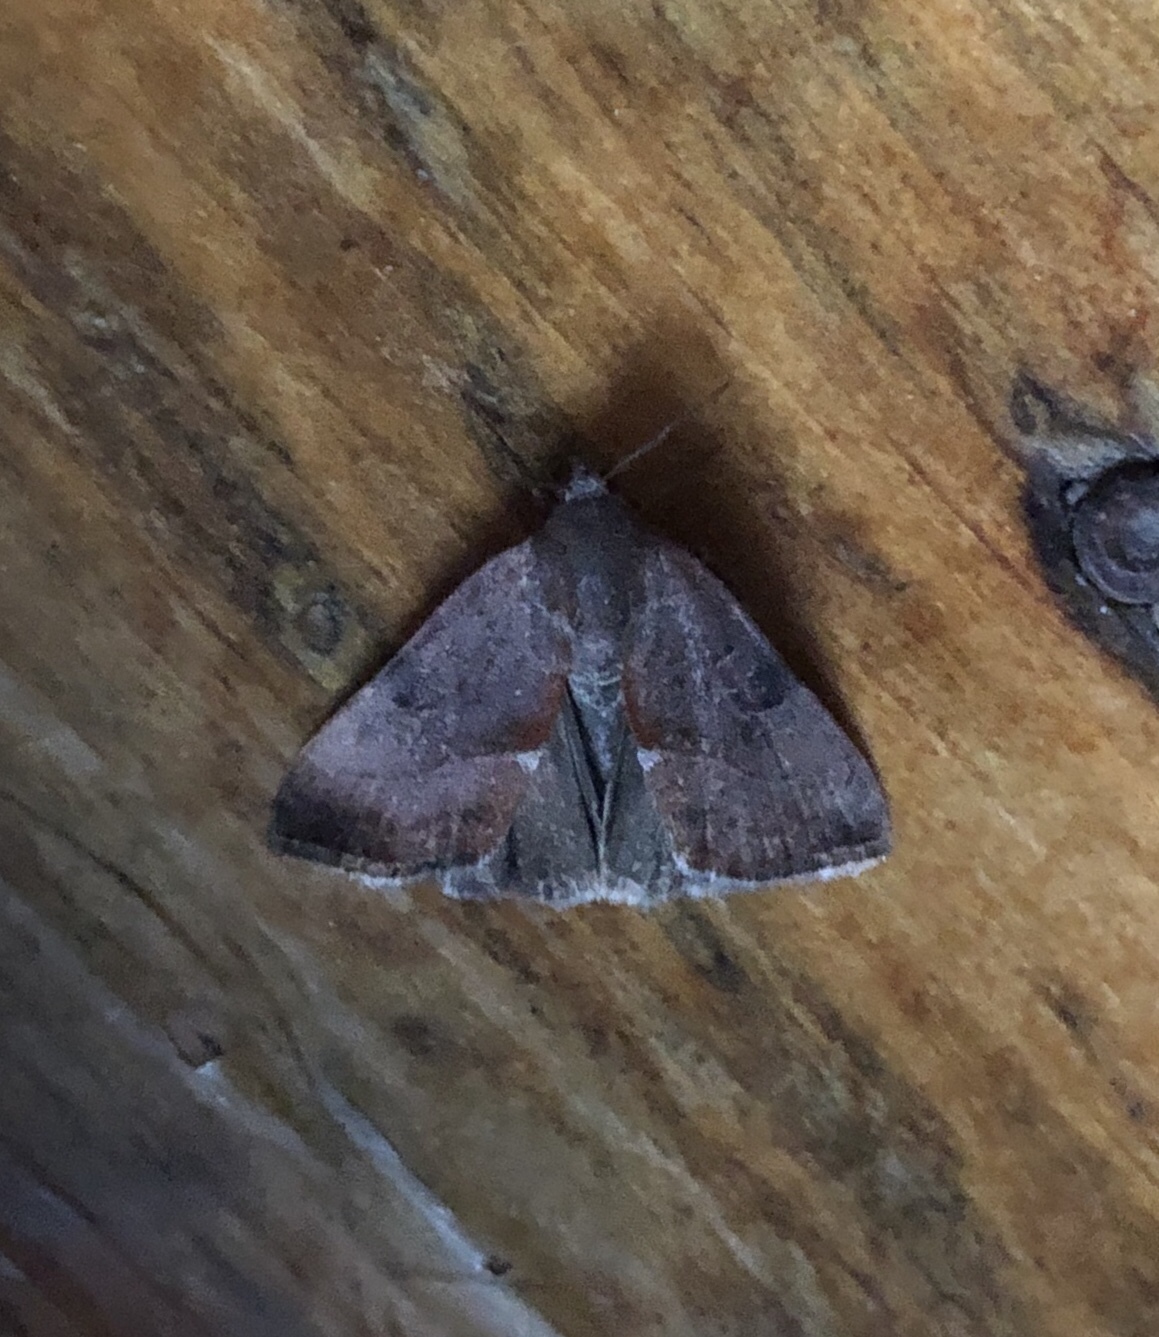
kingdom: Animalia
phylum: Arthropoda
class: Insecta
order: Lepidoptera
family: Noctuidae
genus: Galgula
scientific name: Galgula partita
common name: Wedgeling
